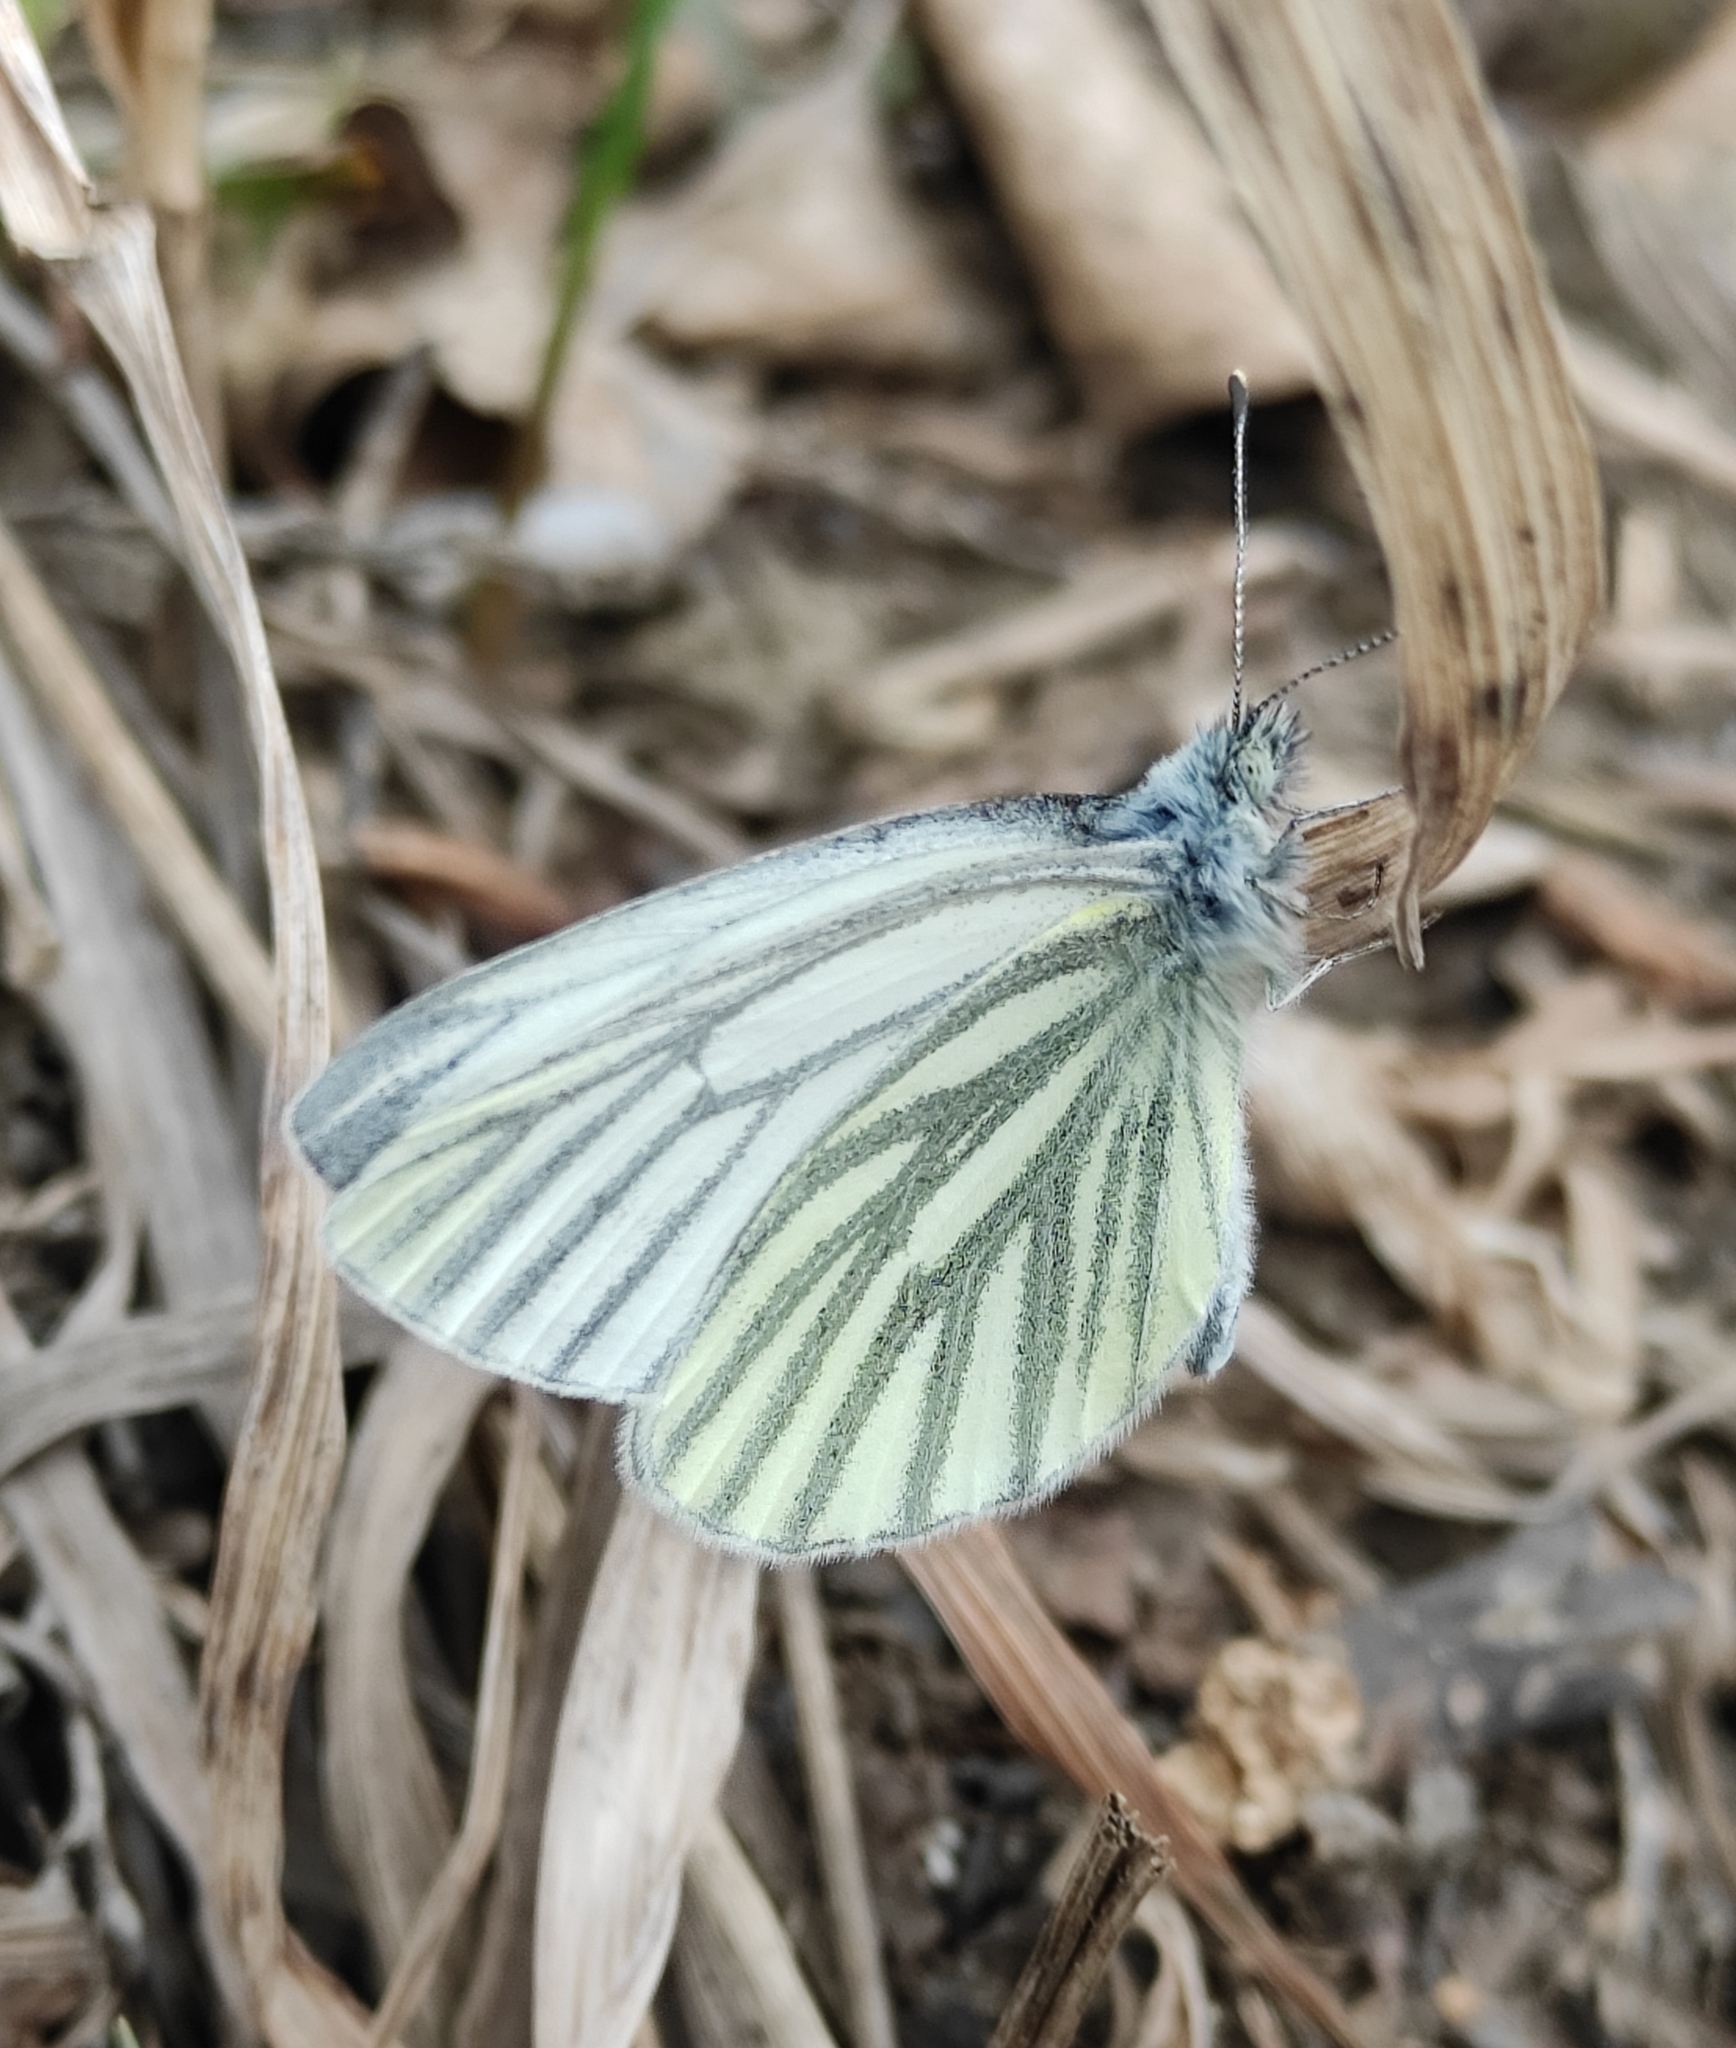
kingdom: Animalia
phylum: Arthropoda
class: Insecta
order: Lepidoptera
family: Pieridae
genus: Pieris
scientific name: Pieris napi
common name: Green-veined white
